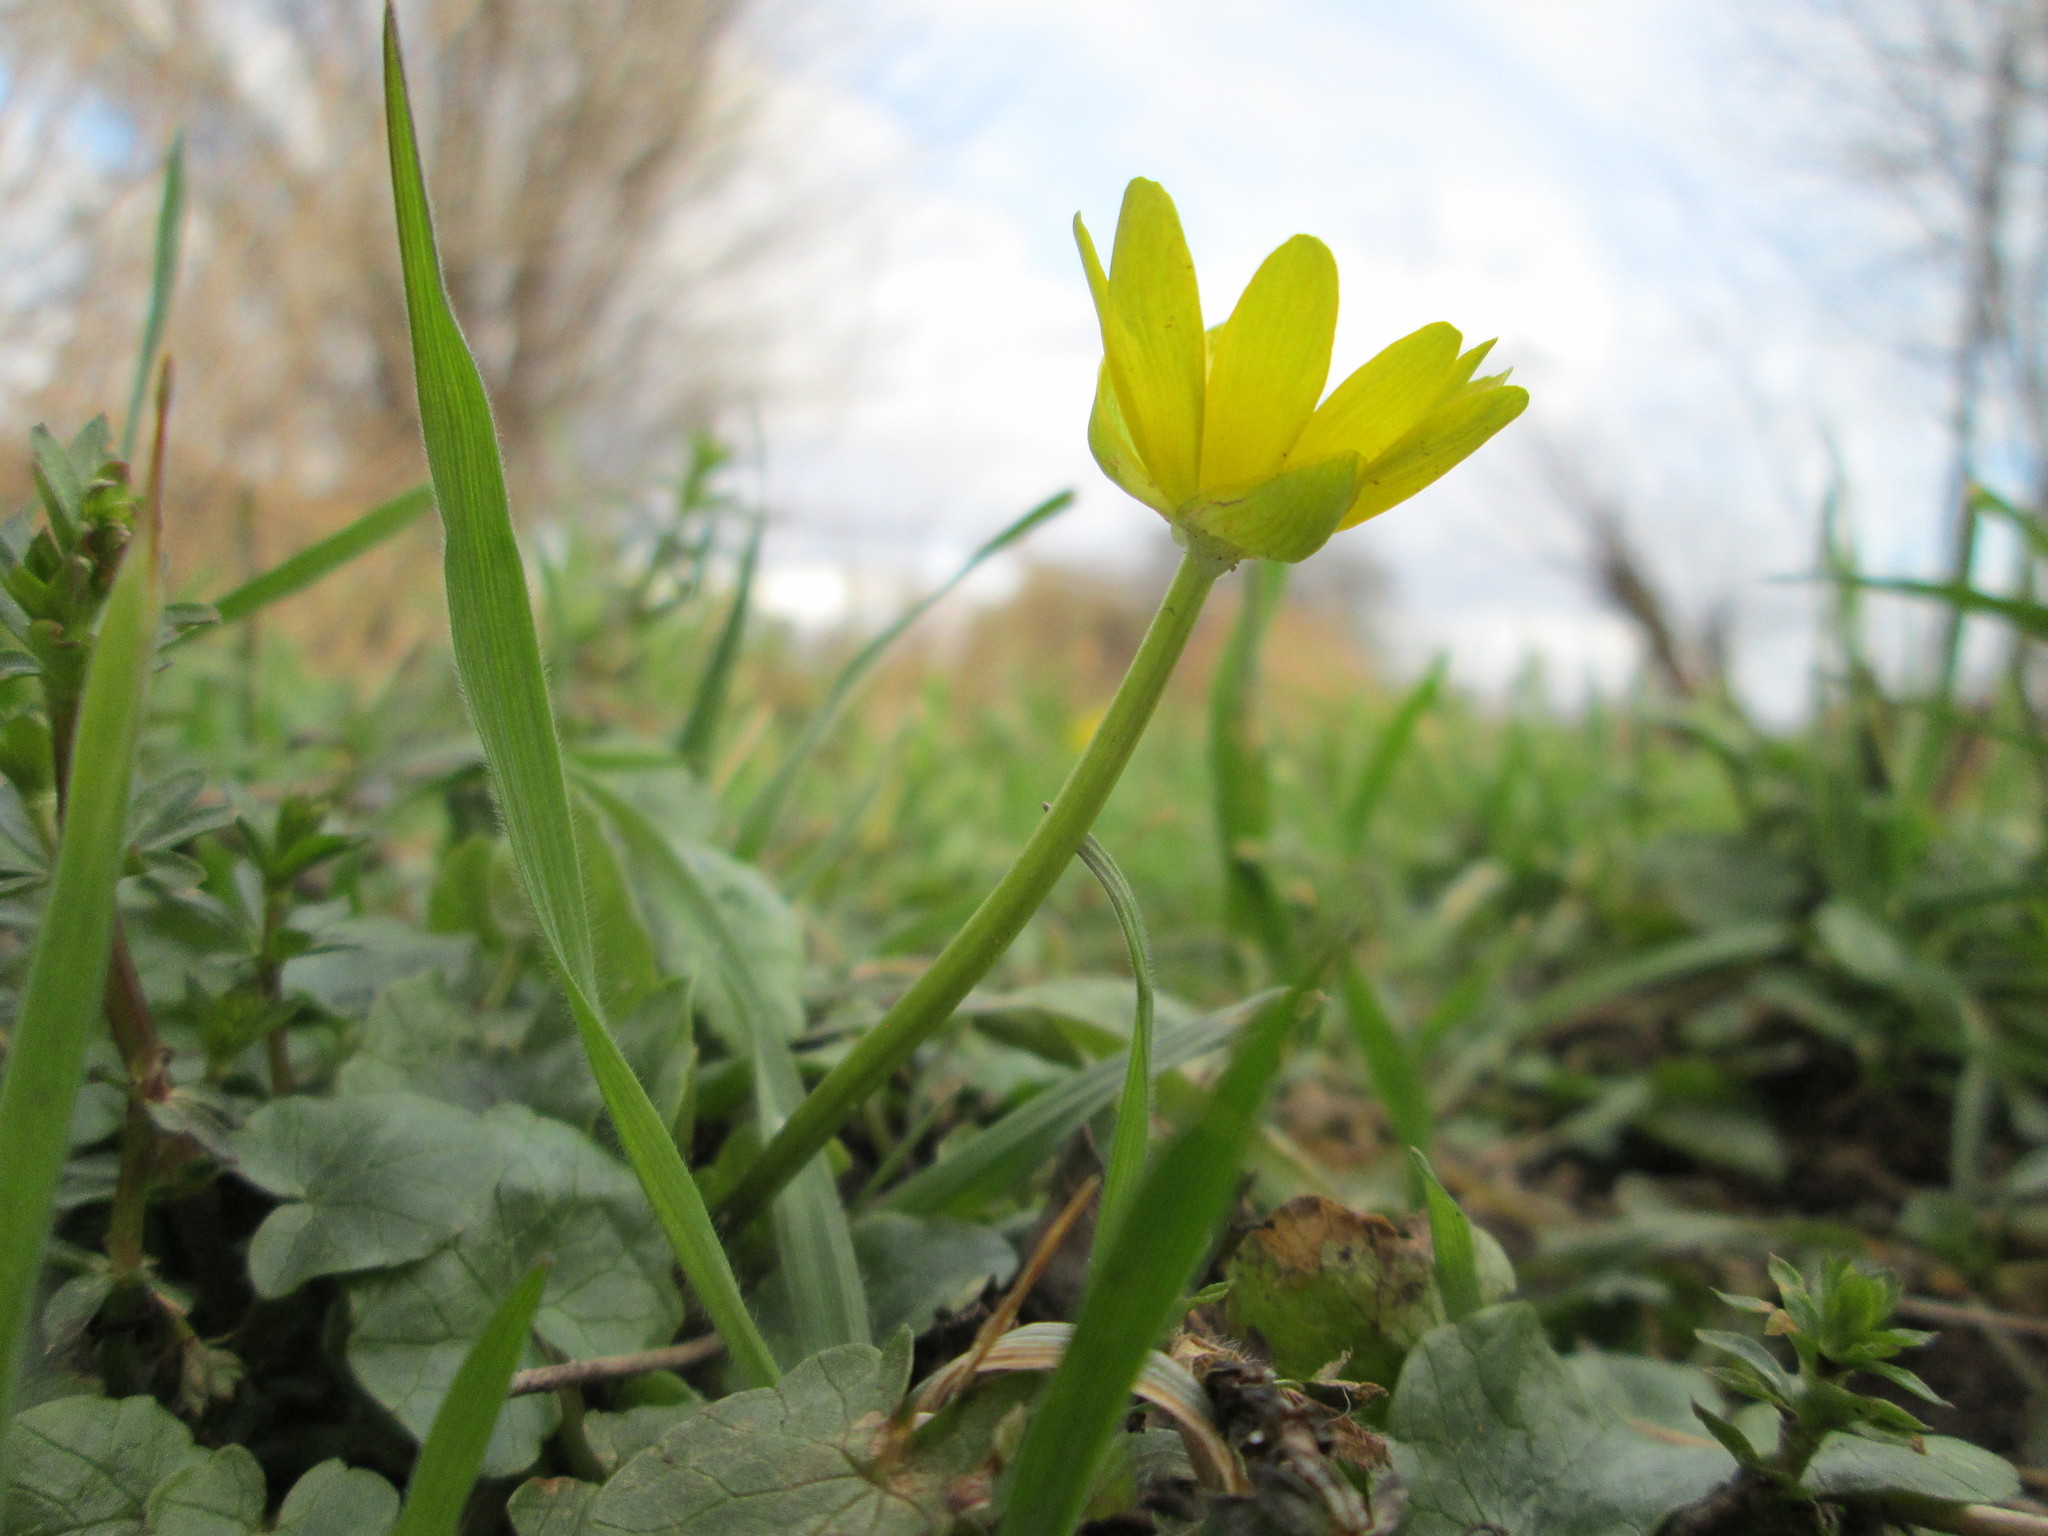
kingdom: Plantae
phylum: Tracheophyta
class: Magnoliopsida
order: Ranunculales
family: Ranunculaceae
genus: Ficaria
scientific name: Ficaria verna
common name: Lesser celandine
